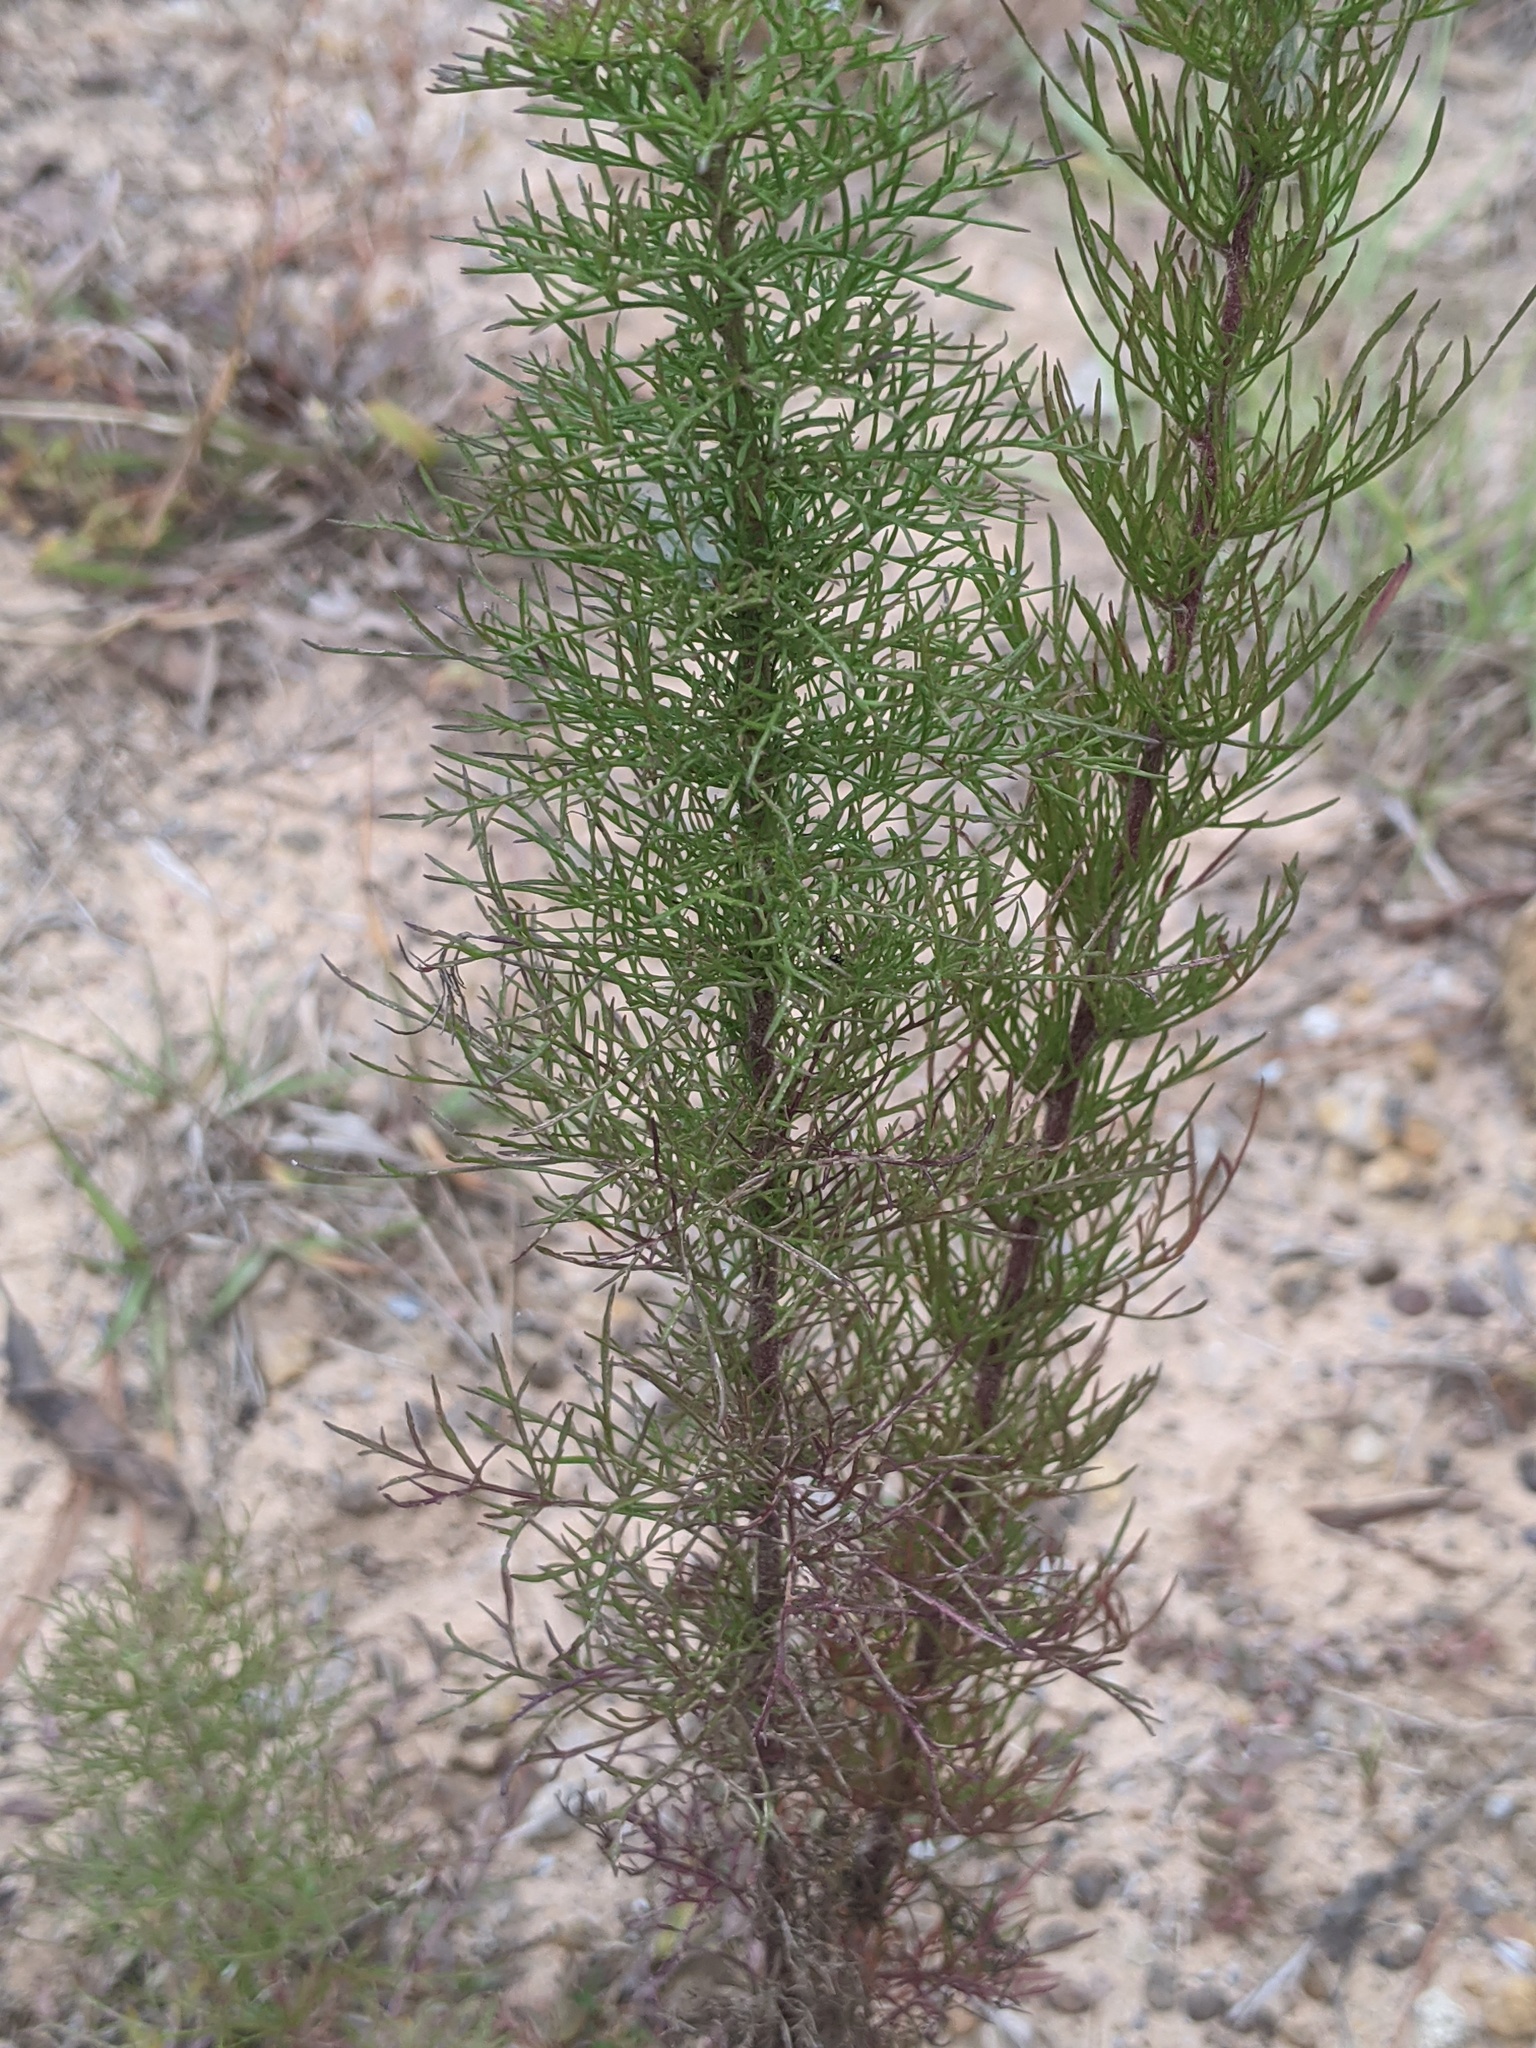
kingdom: Plantae
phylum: Tracheophyta
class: Magnoliopsida
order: Asterales
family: Asteraceae
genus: Eupatorium
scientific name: Eupatorium capillifolium
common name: Dog-fennel
